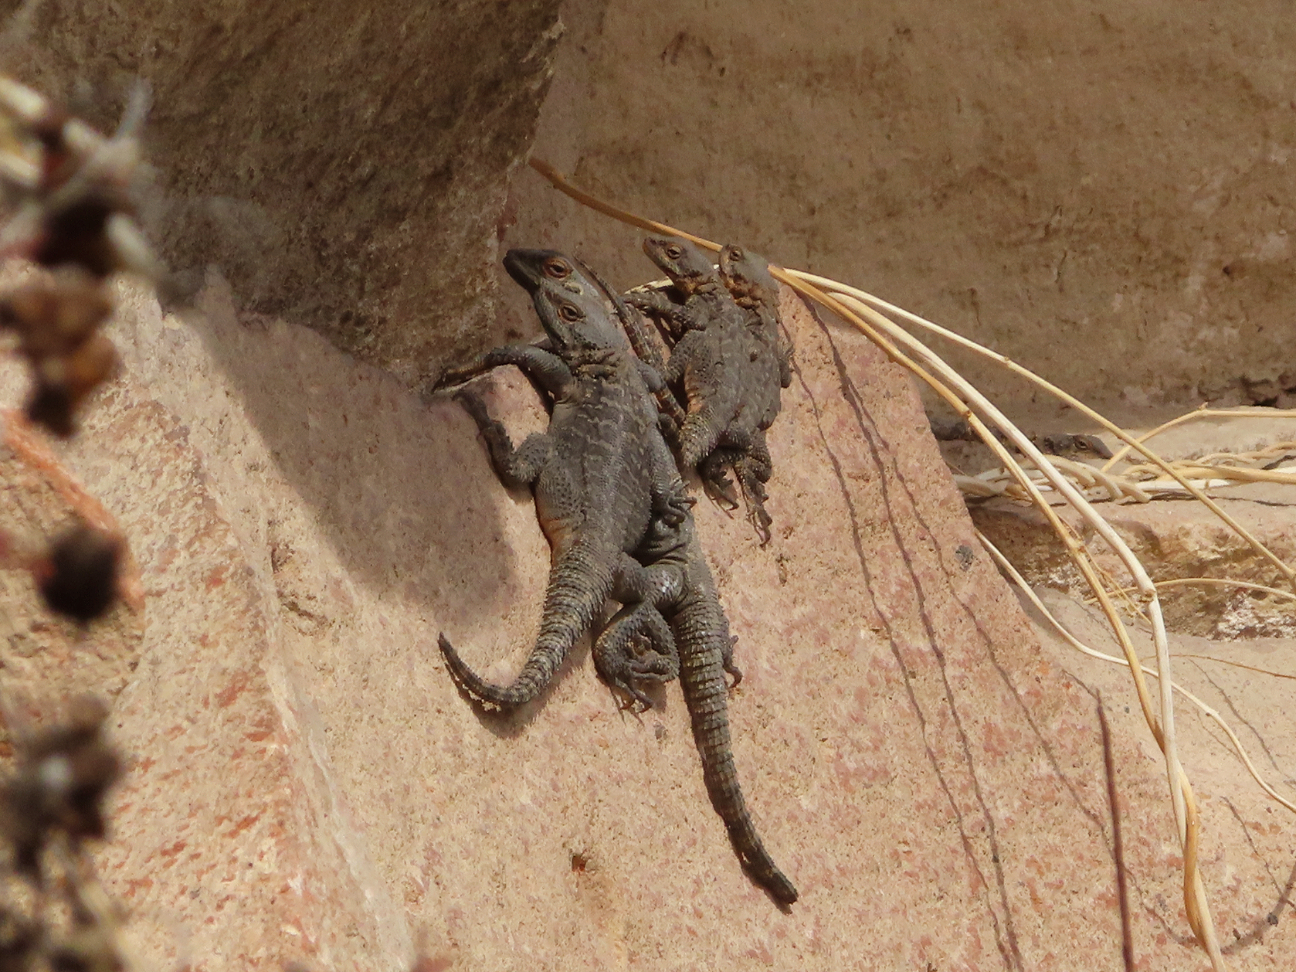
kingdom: Animalia
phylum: Chordata
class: Squamata
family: Agamidae
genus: Paralaudakia
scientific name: Paralaudakia caucasia
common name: Caucasian agama
